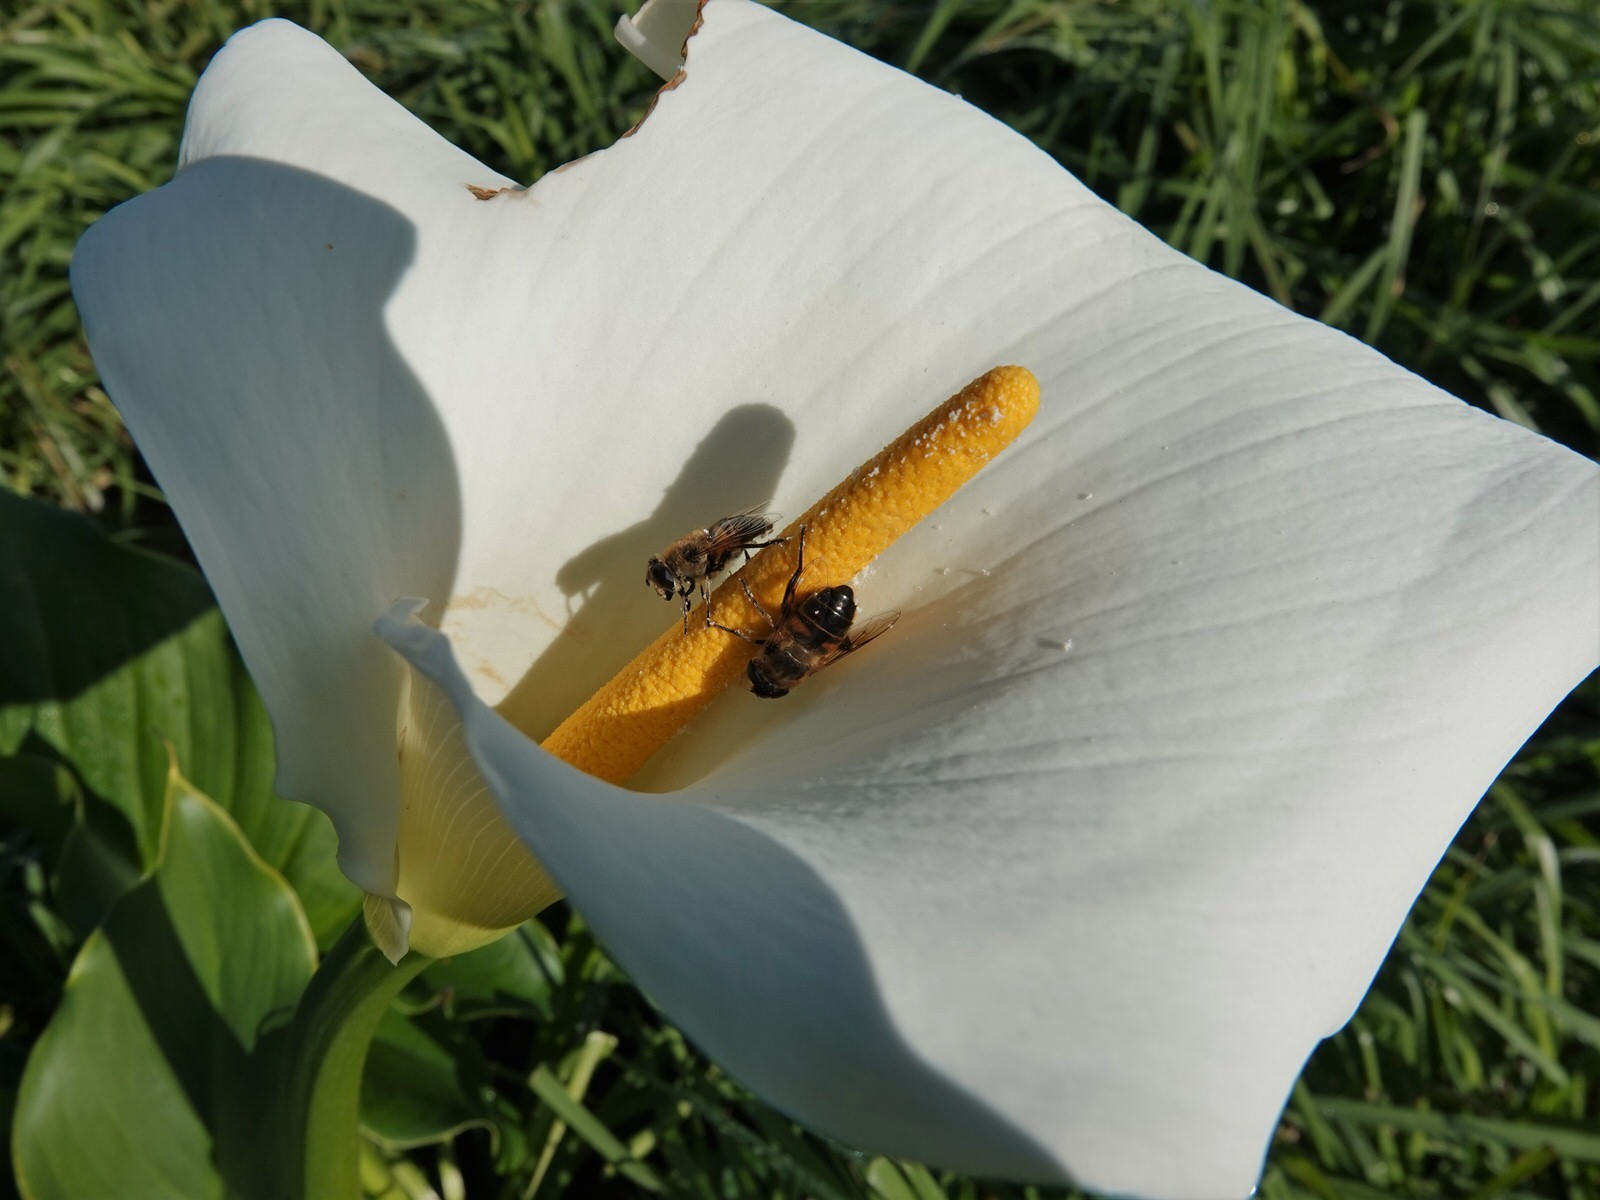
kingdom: Animalia
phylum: Arthropoda
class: Insecta
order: Diptera
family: Syrphidae
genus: Eristalis
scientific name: Eristalis tenax
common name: Drone fly
